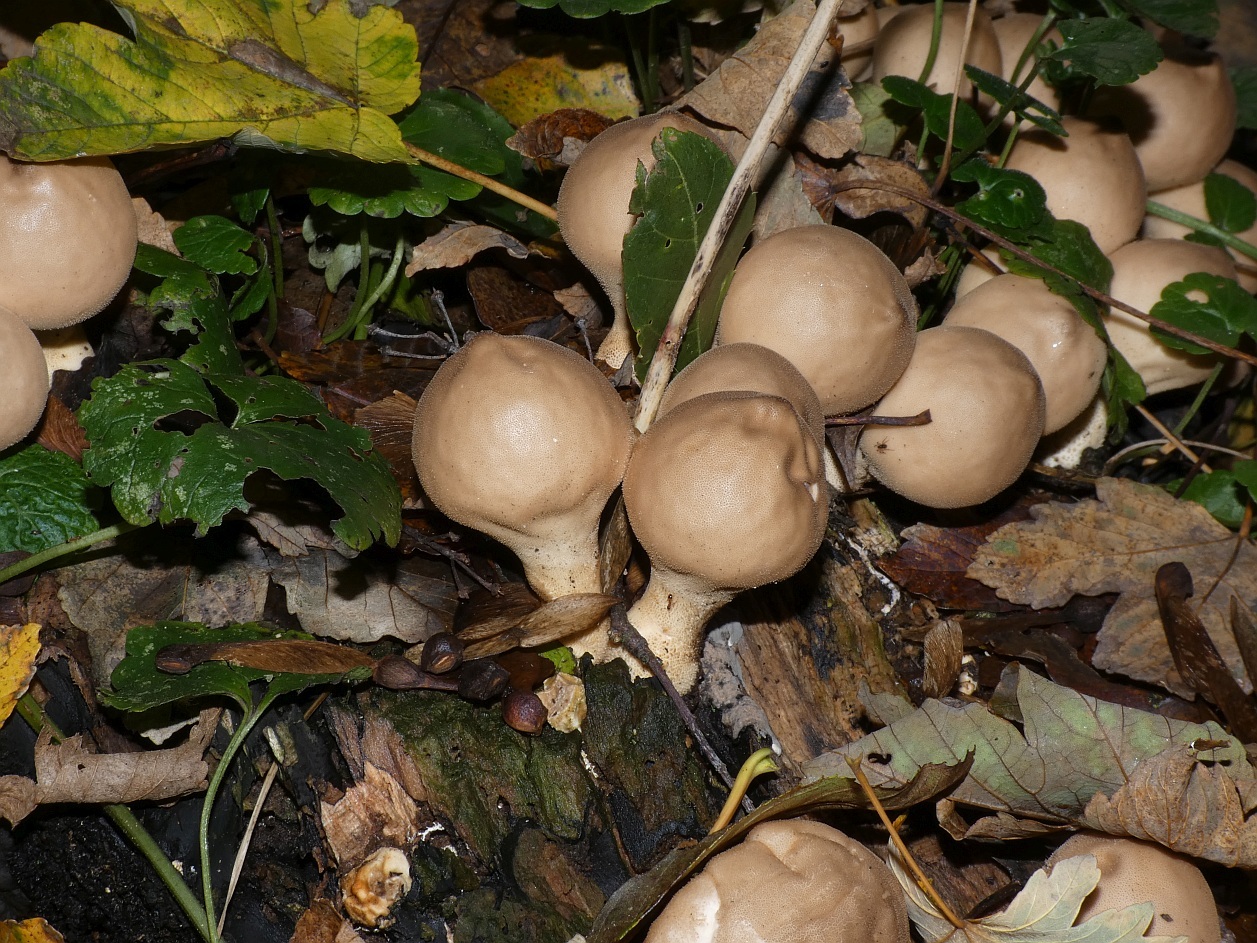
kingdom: Fungi
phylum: Basidiomycota
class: Agaricomycetes
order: Agaricales
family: Lycoperdaceae
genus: Apioperdon
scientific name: Apioperdon pyriforme
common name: Pear-shaped puffball
